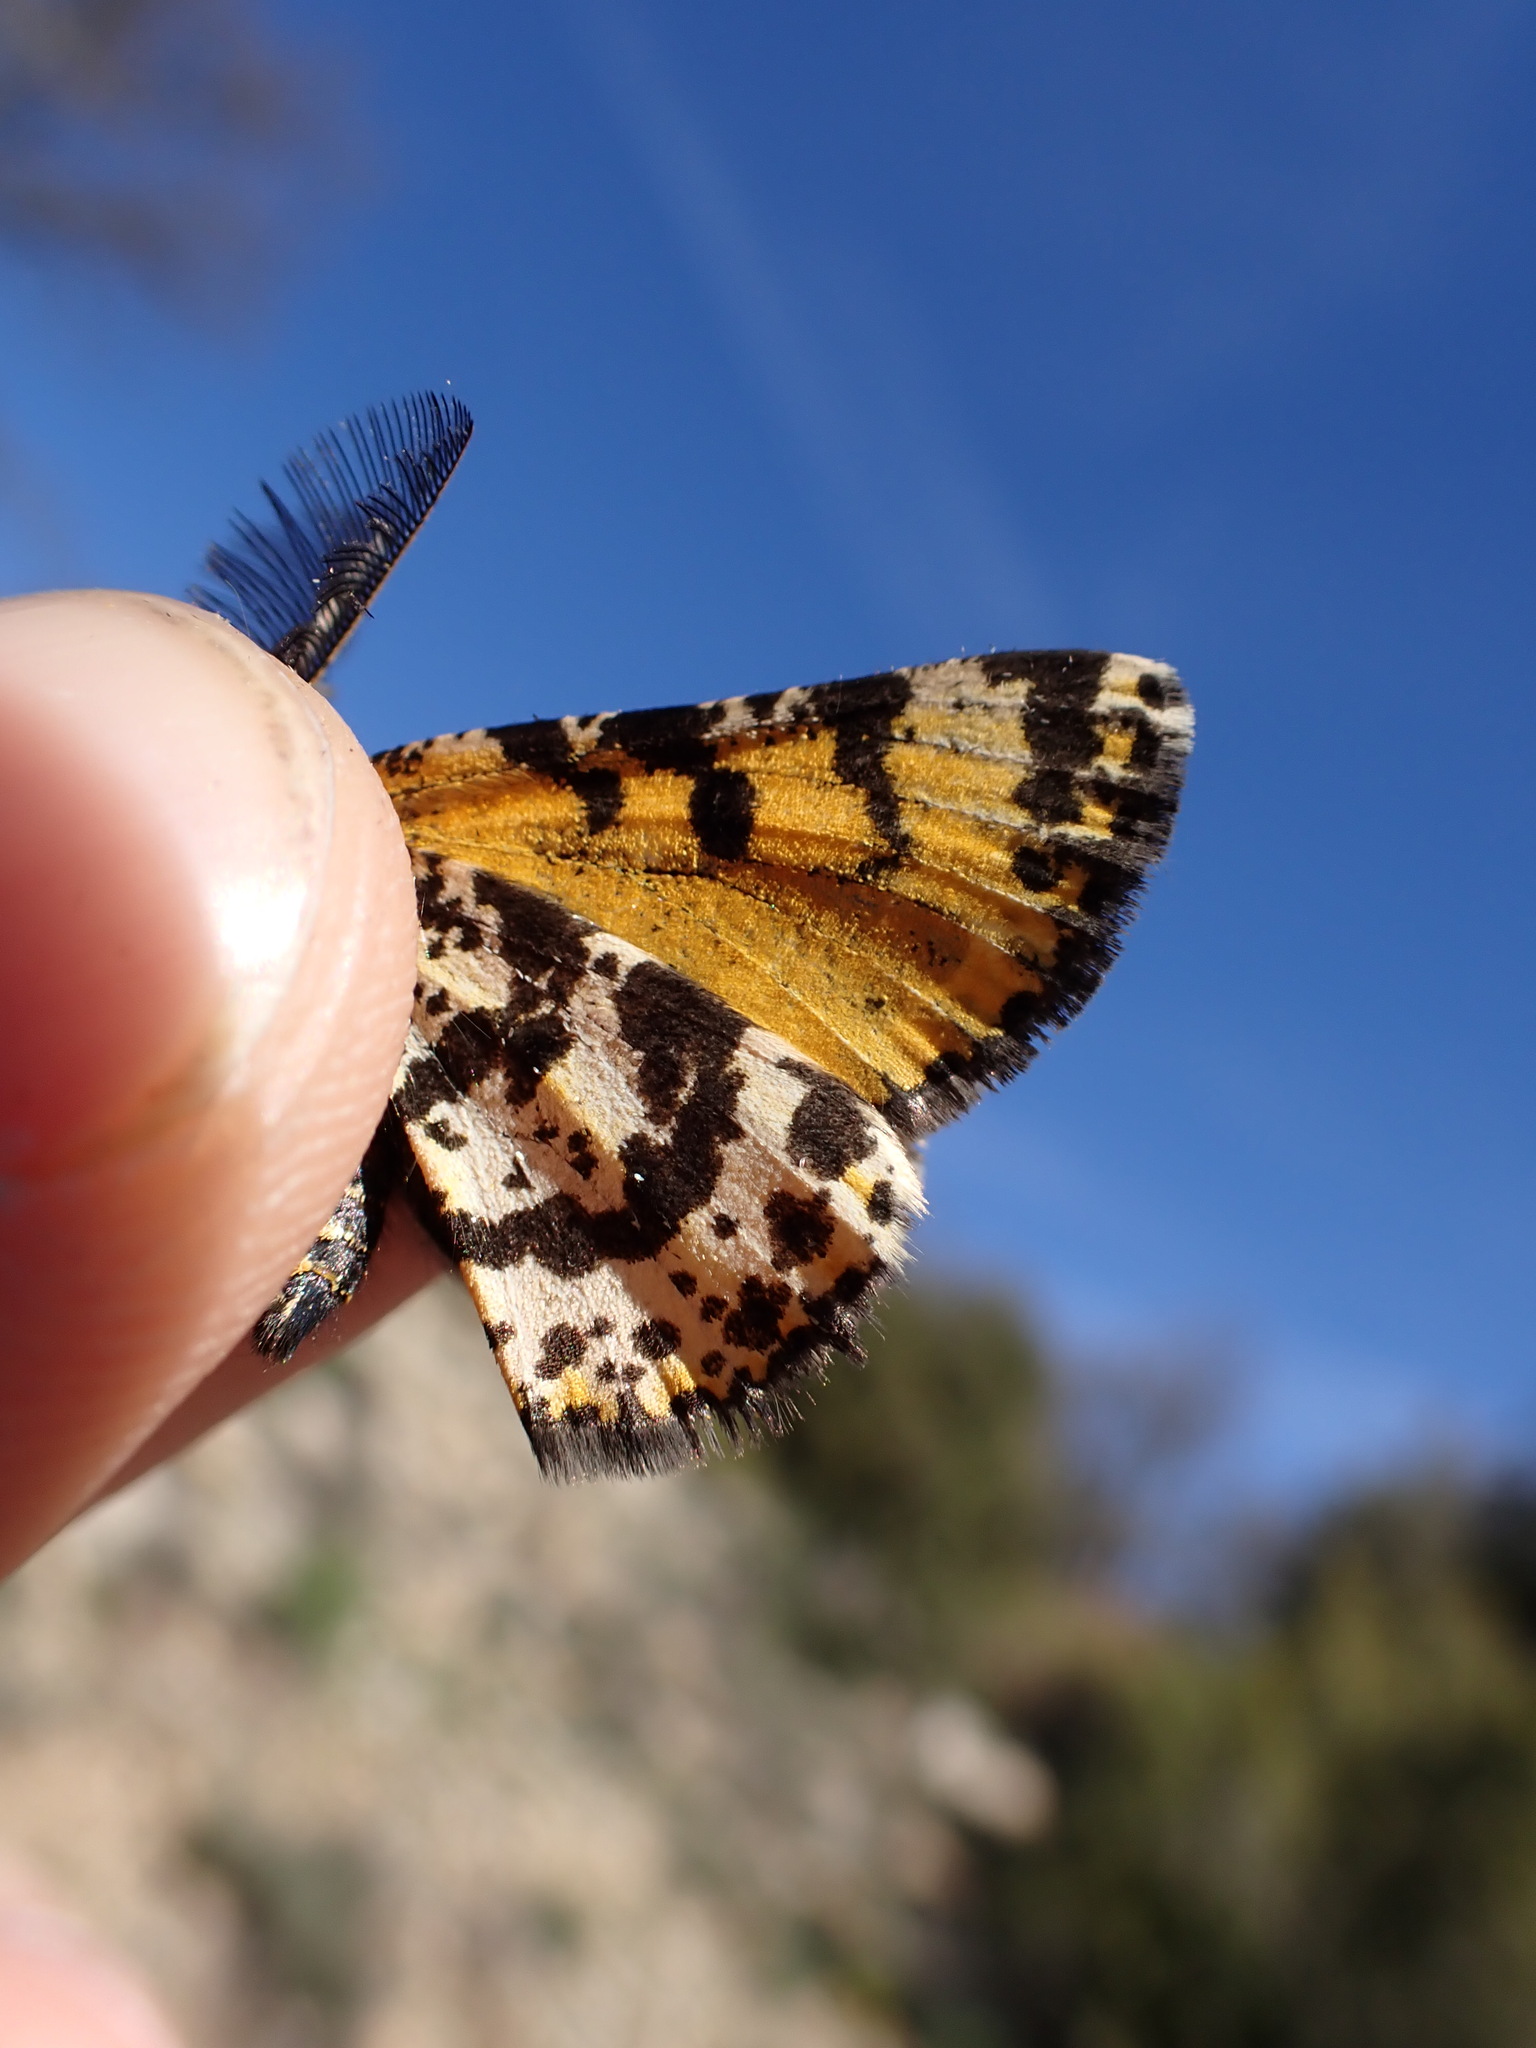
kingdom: Animalia
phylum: Arthropoda
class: Insecta
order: Lepidoptera
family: Geometridae
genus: Eurranthis
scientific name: Eurranthis plummistaria
